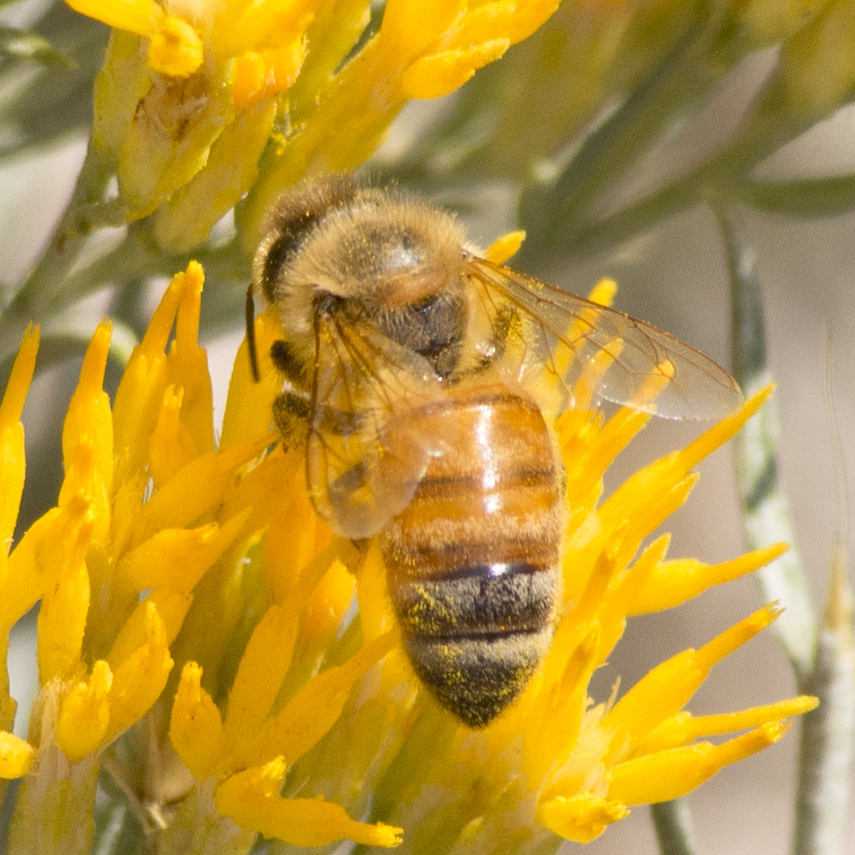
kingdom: Animalia
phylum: Arthropoda
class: Insecta
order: Hymenoptera
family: Apidae
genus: Apis
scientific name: Apis mellifera
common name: Honey bee
